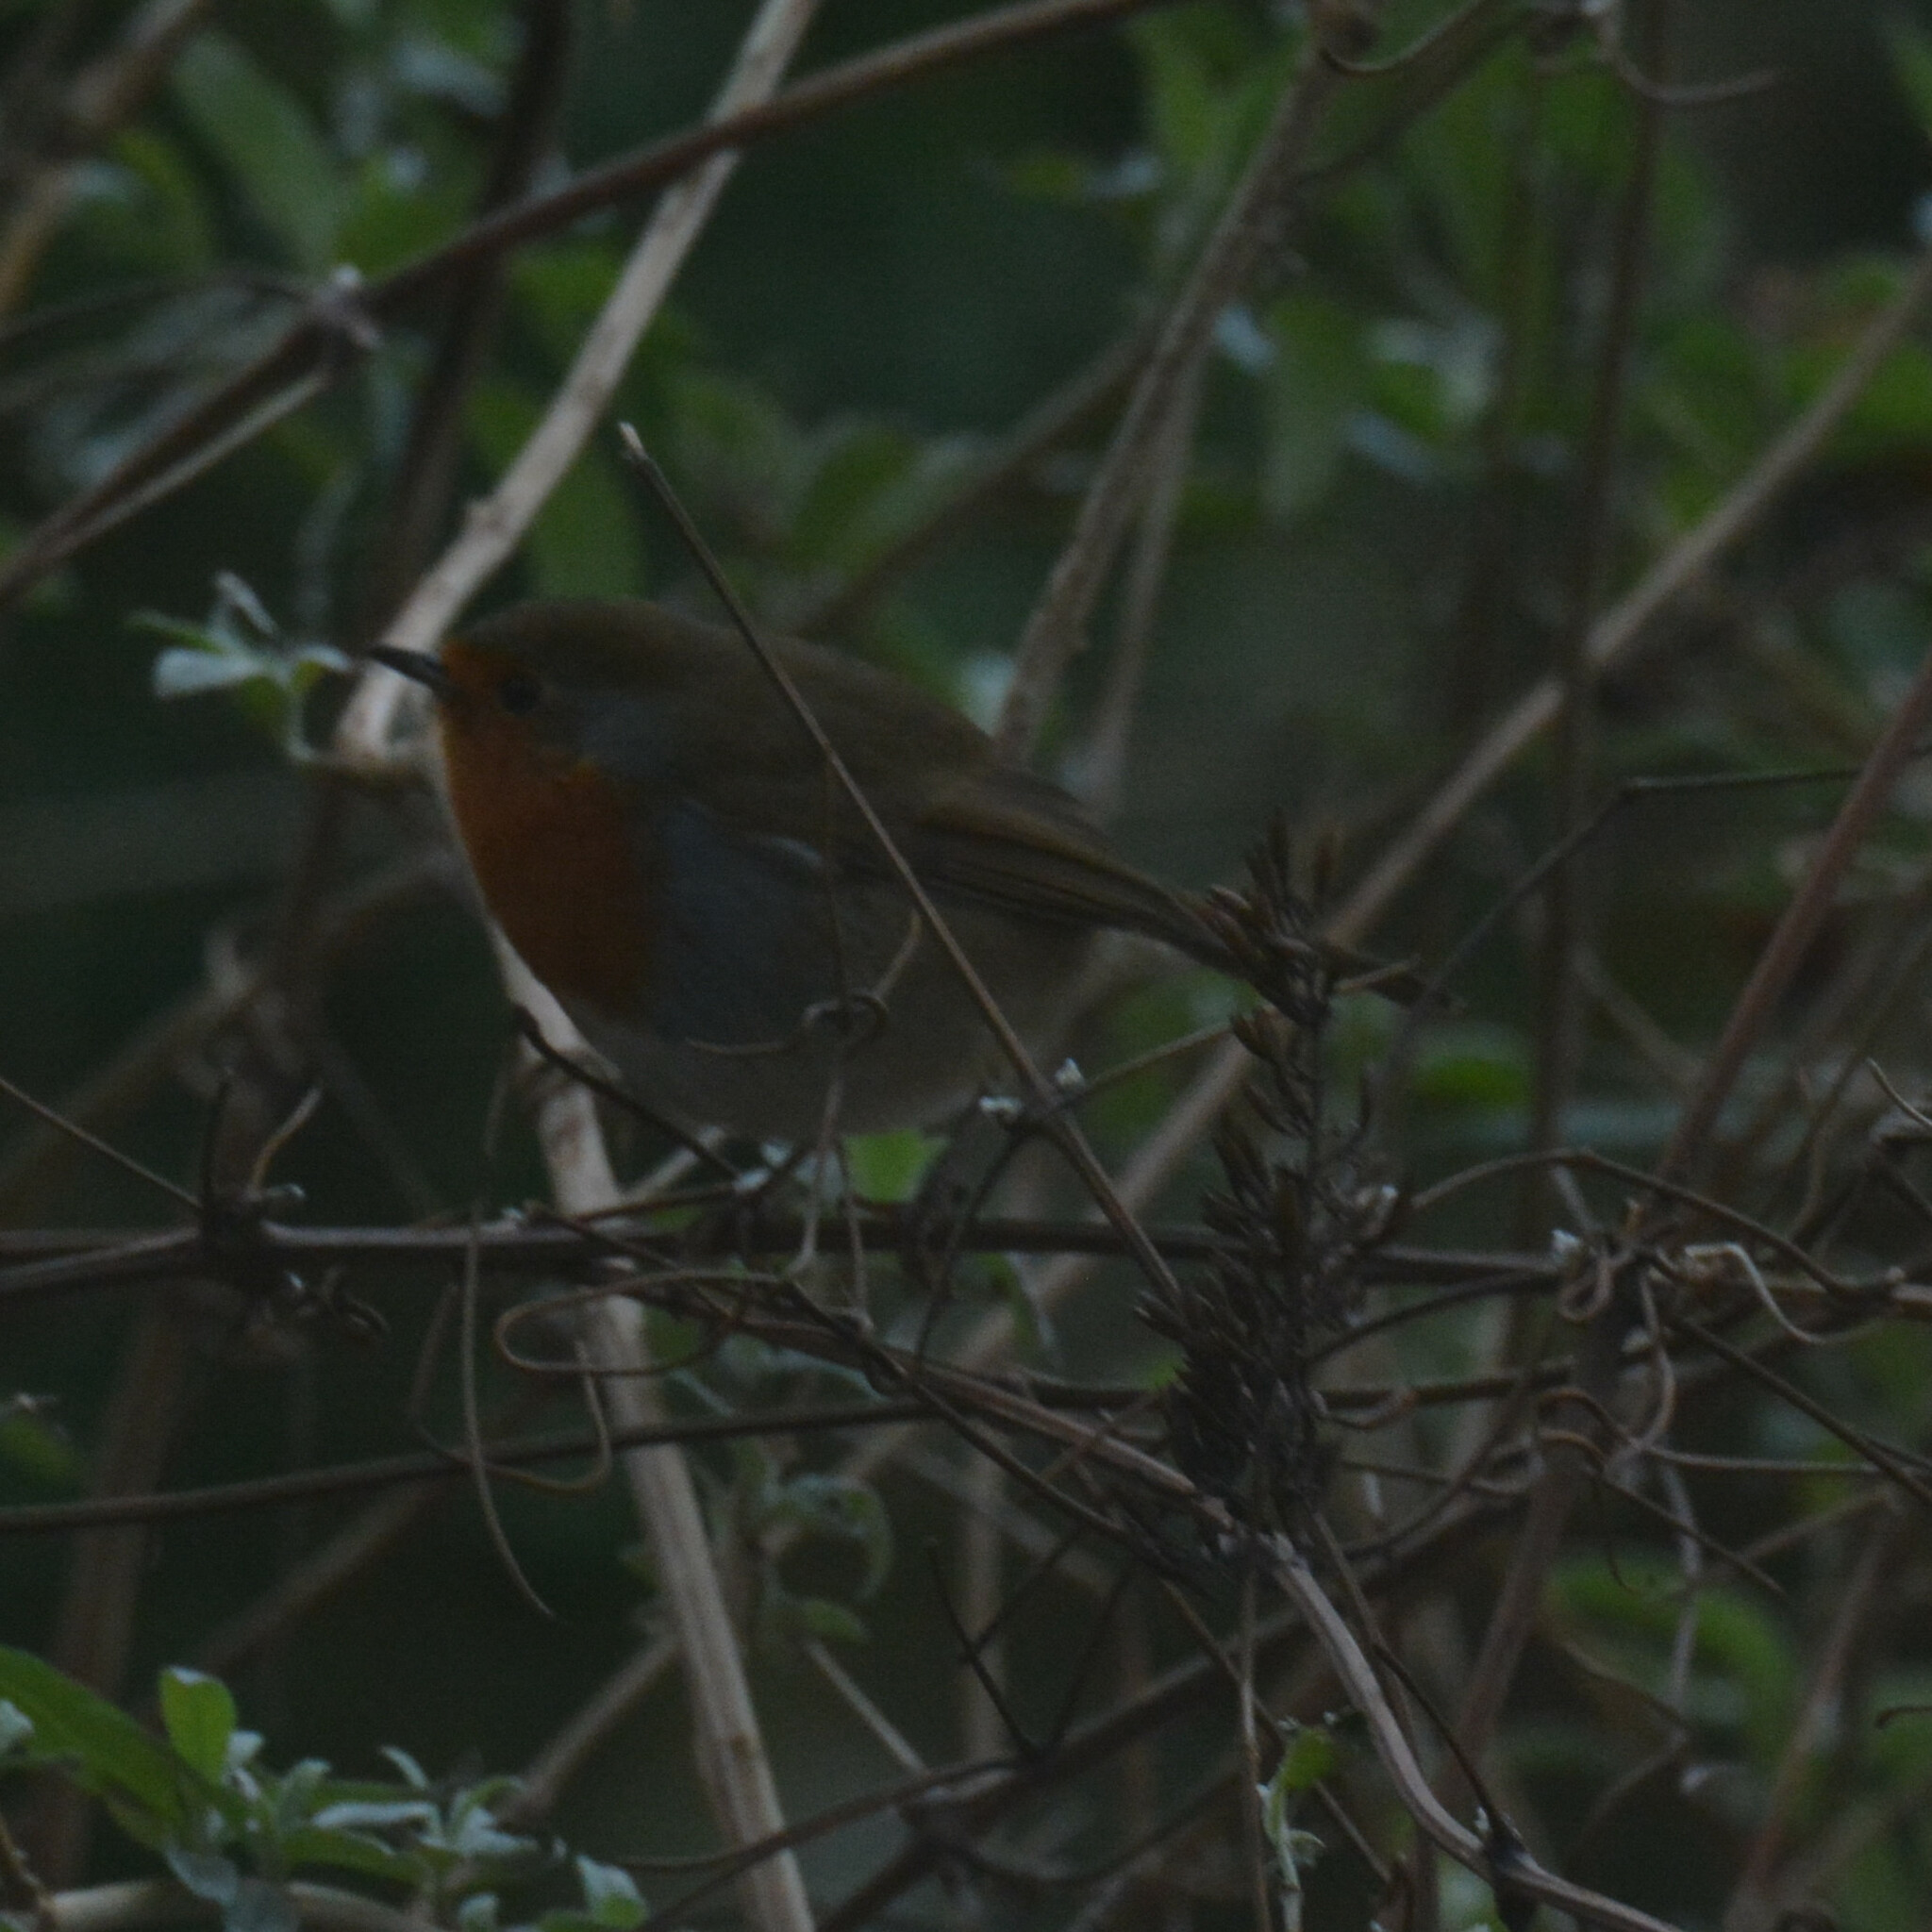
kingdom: Animalia
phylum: Chordata
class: Aves
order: Passeriformes
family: Muscicapidae
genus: Erithacus
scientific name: Erithacus rubecula
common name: European robin
